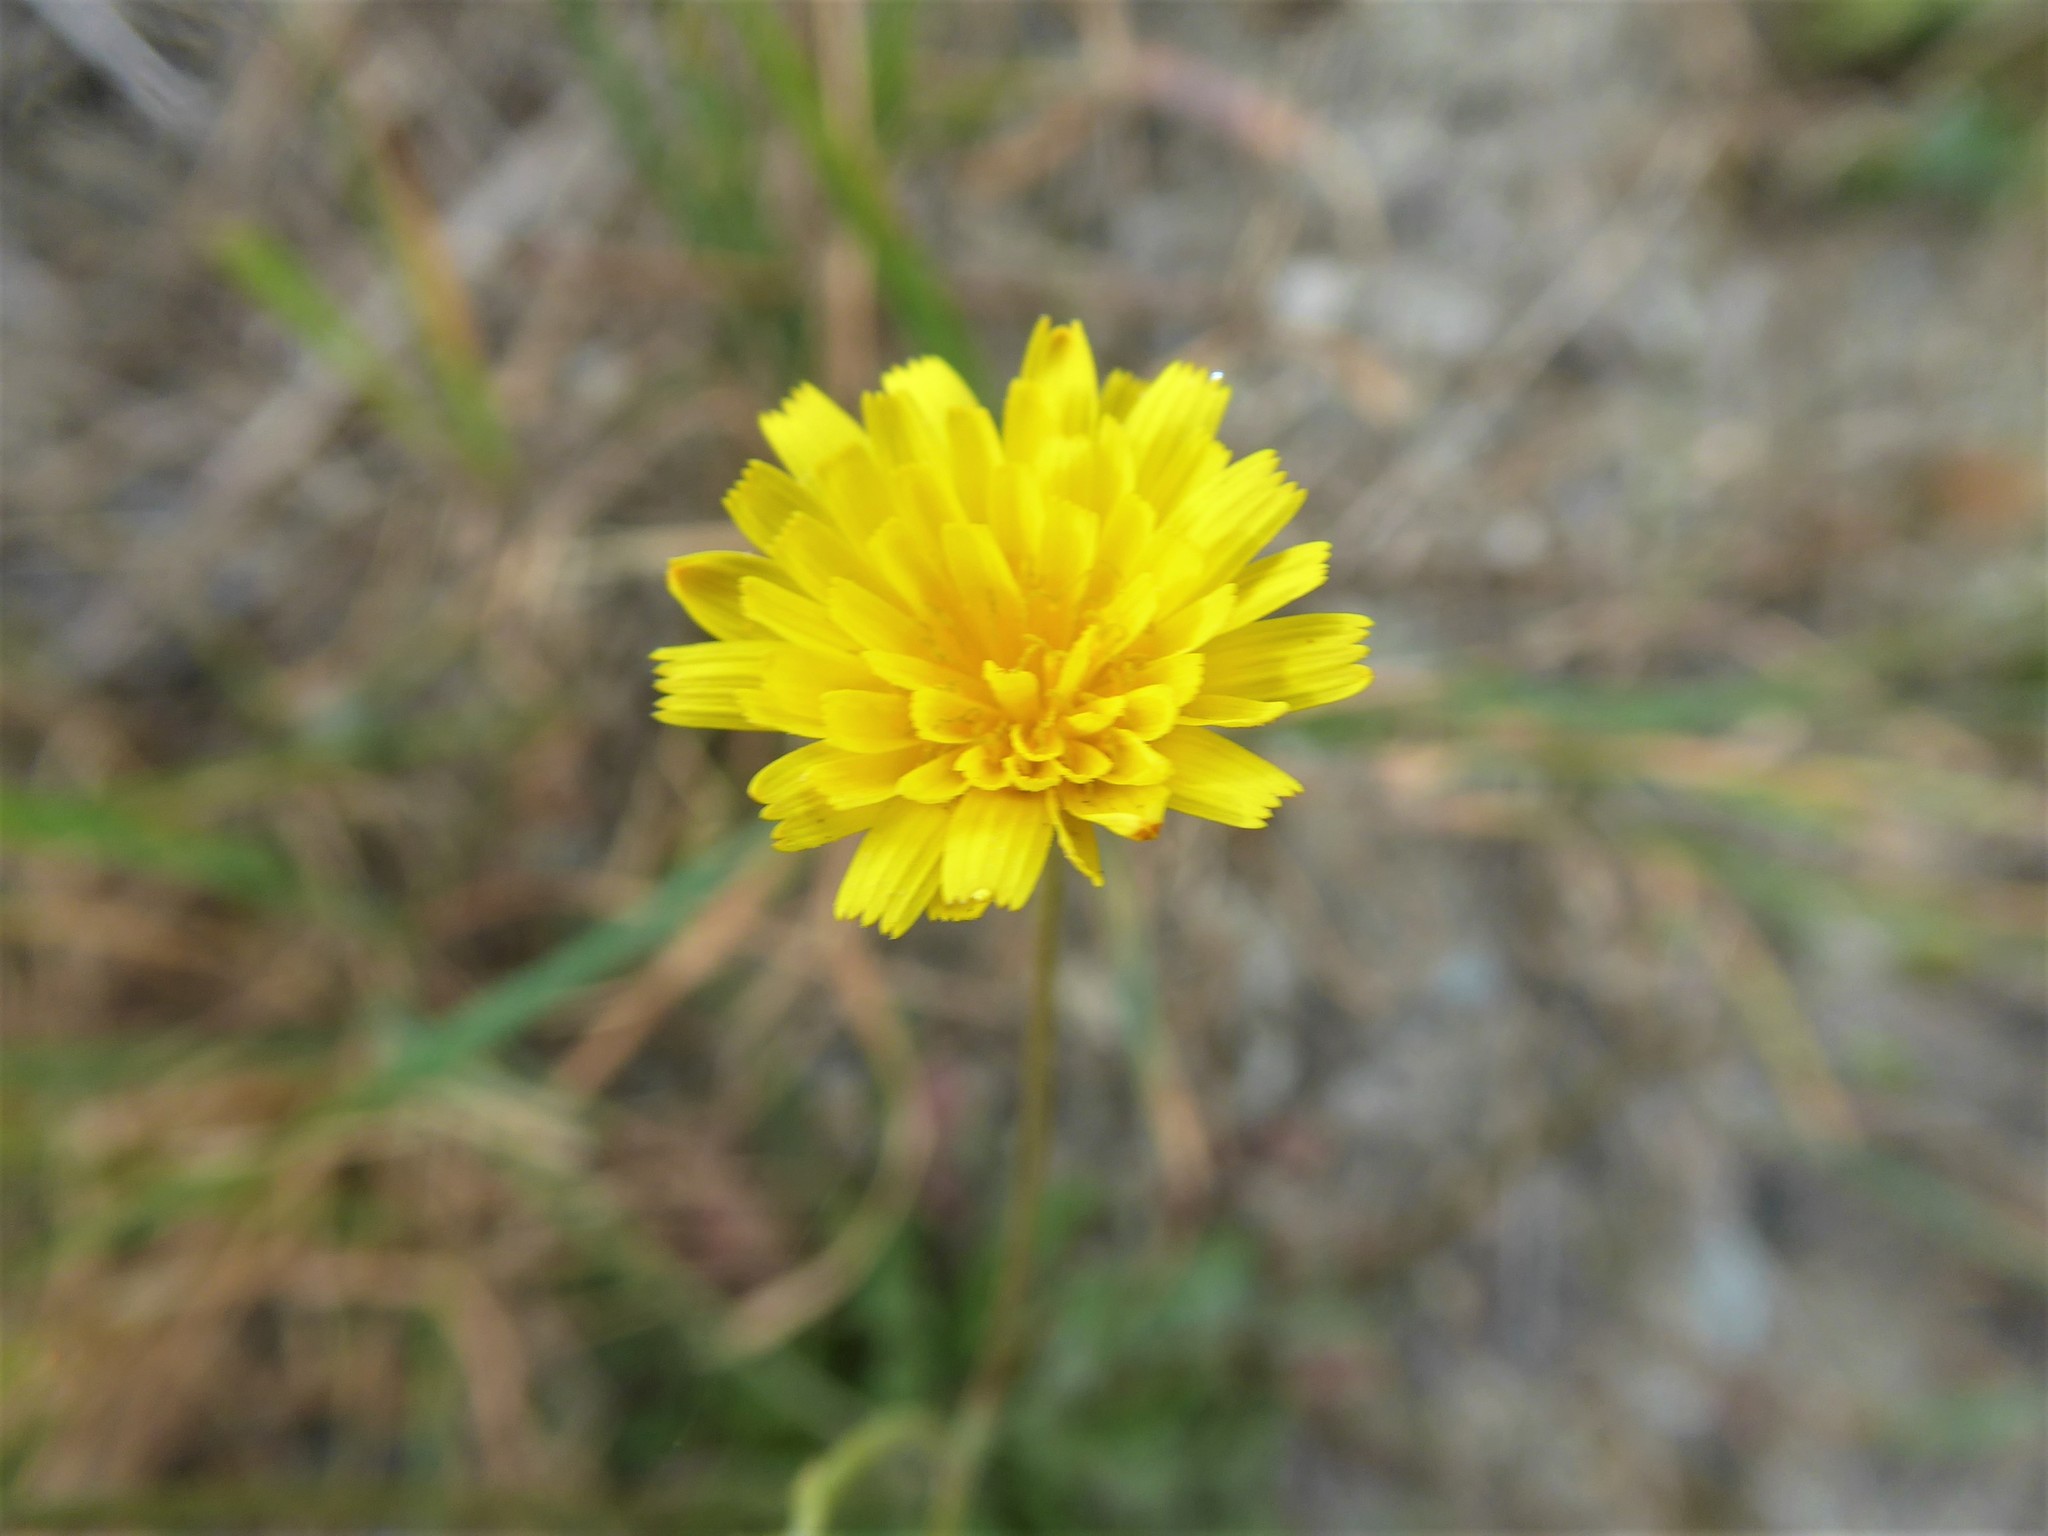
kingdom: Plantae
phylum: Tracheophyta
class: Magnoliopsida
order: Asterales
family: Asteraceae
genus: Scorzoneroides
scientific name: Scorzoneroides autumnalis
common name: Autumn hawkbit
